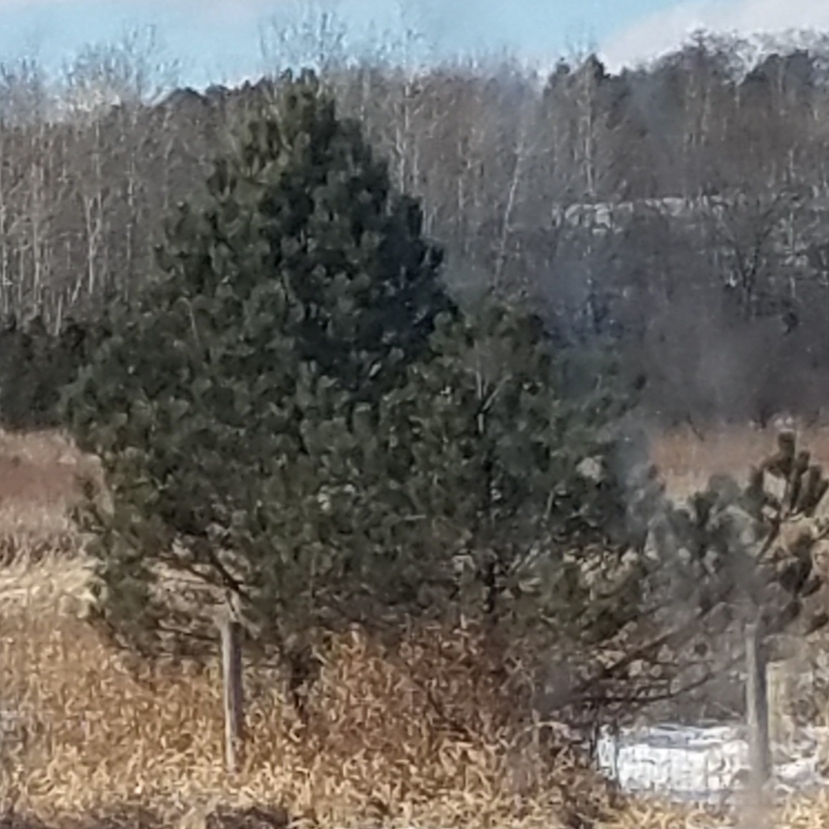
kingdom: Plantae
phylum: Tracheophyta
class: Pinopsida
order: Pinales
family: Pinaceae
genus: Pinus
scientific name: Pinus resinosa
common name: Norway pine
